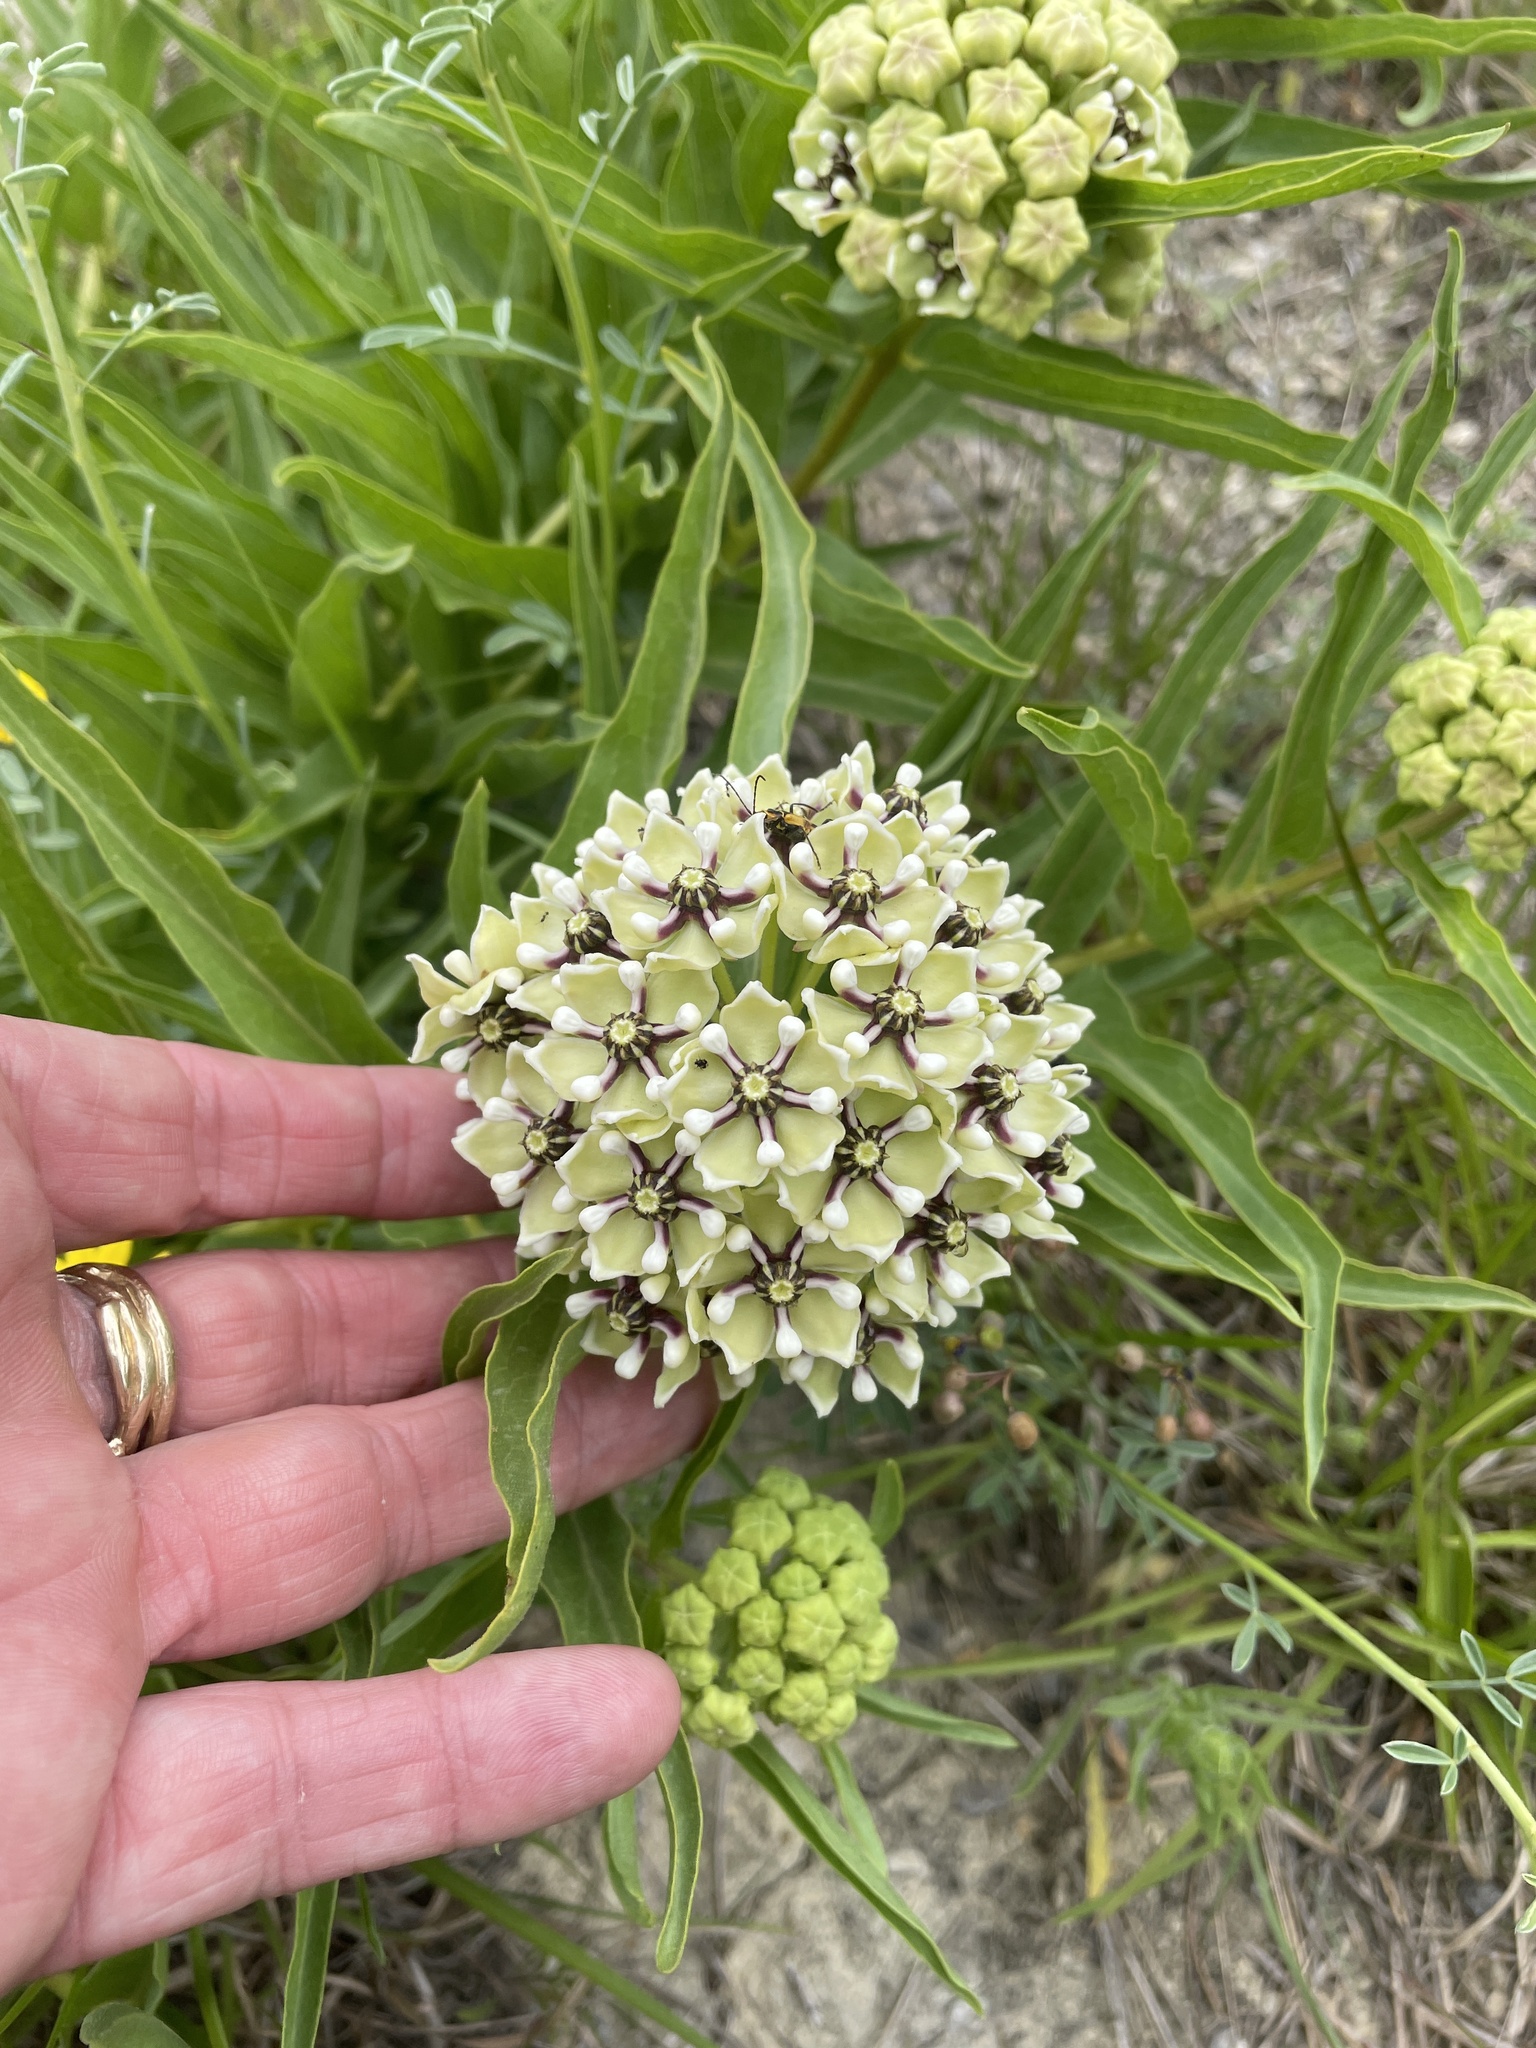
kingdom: Plantae
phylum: Tracheophyta
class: Magnoliopsida
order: Gentianales
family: Apocynaceae
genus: Asclepias
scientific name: Asclepias asperula
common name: Antelope horns
